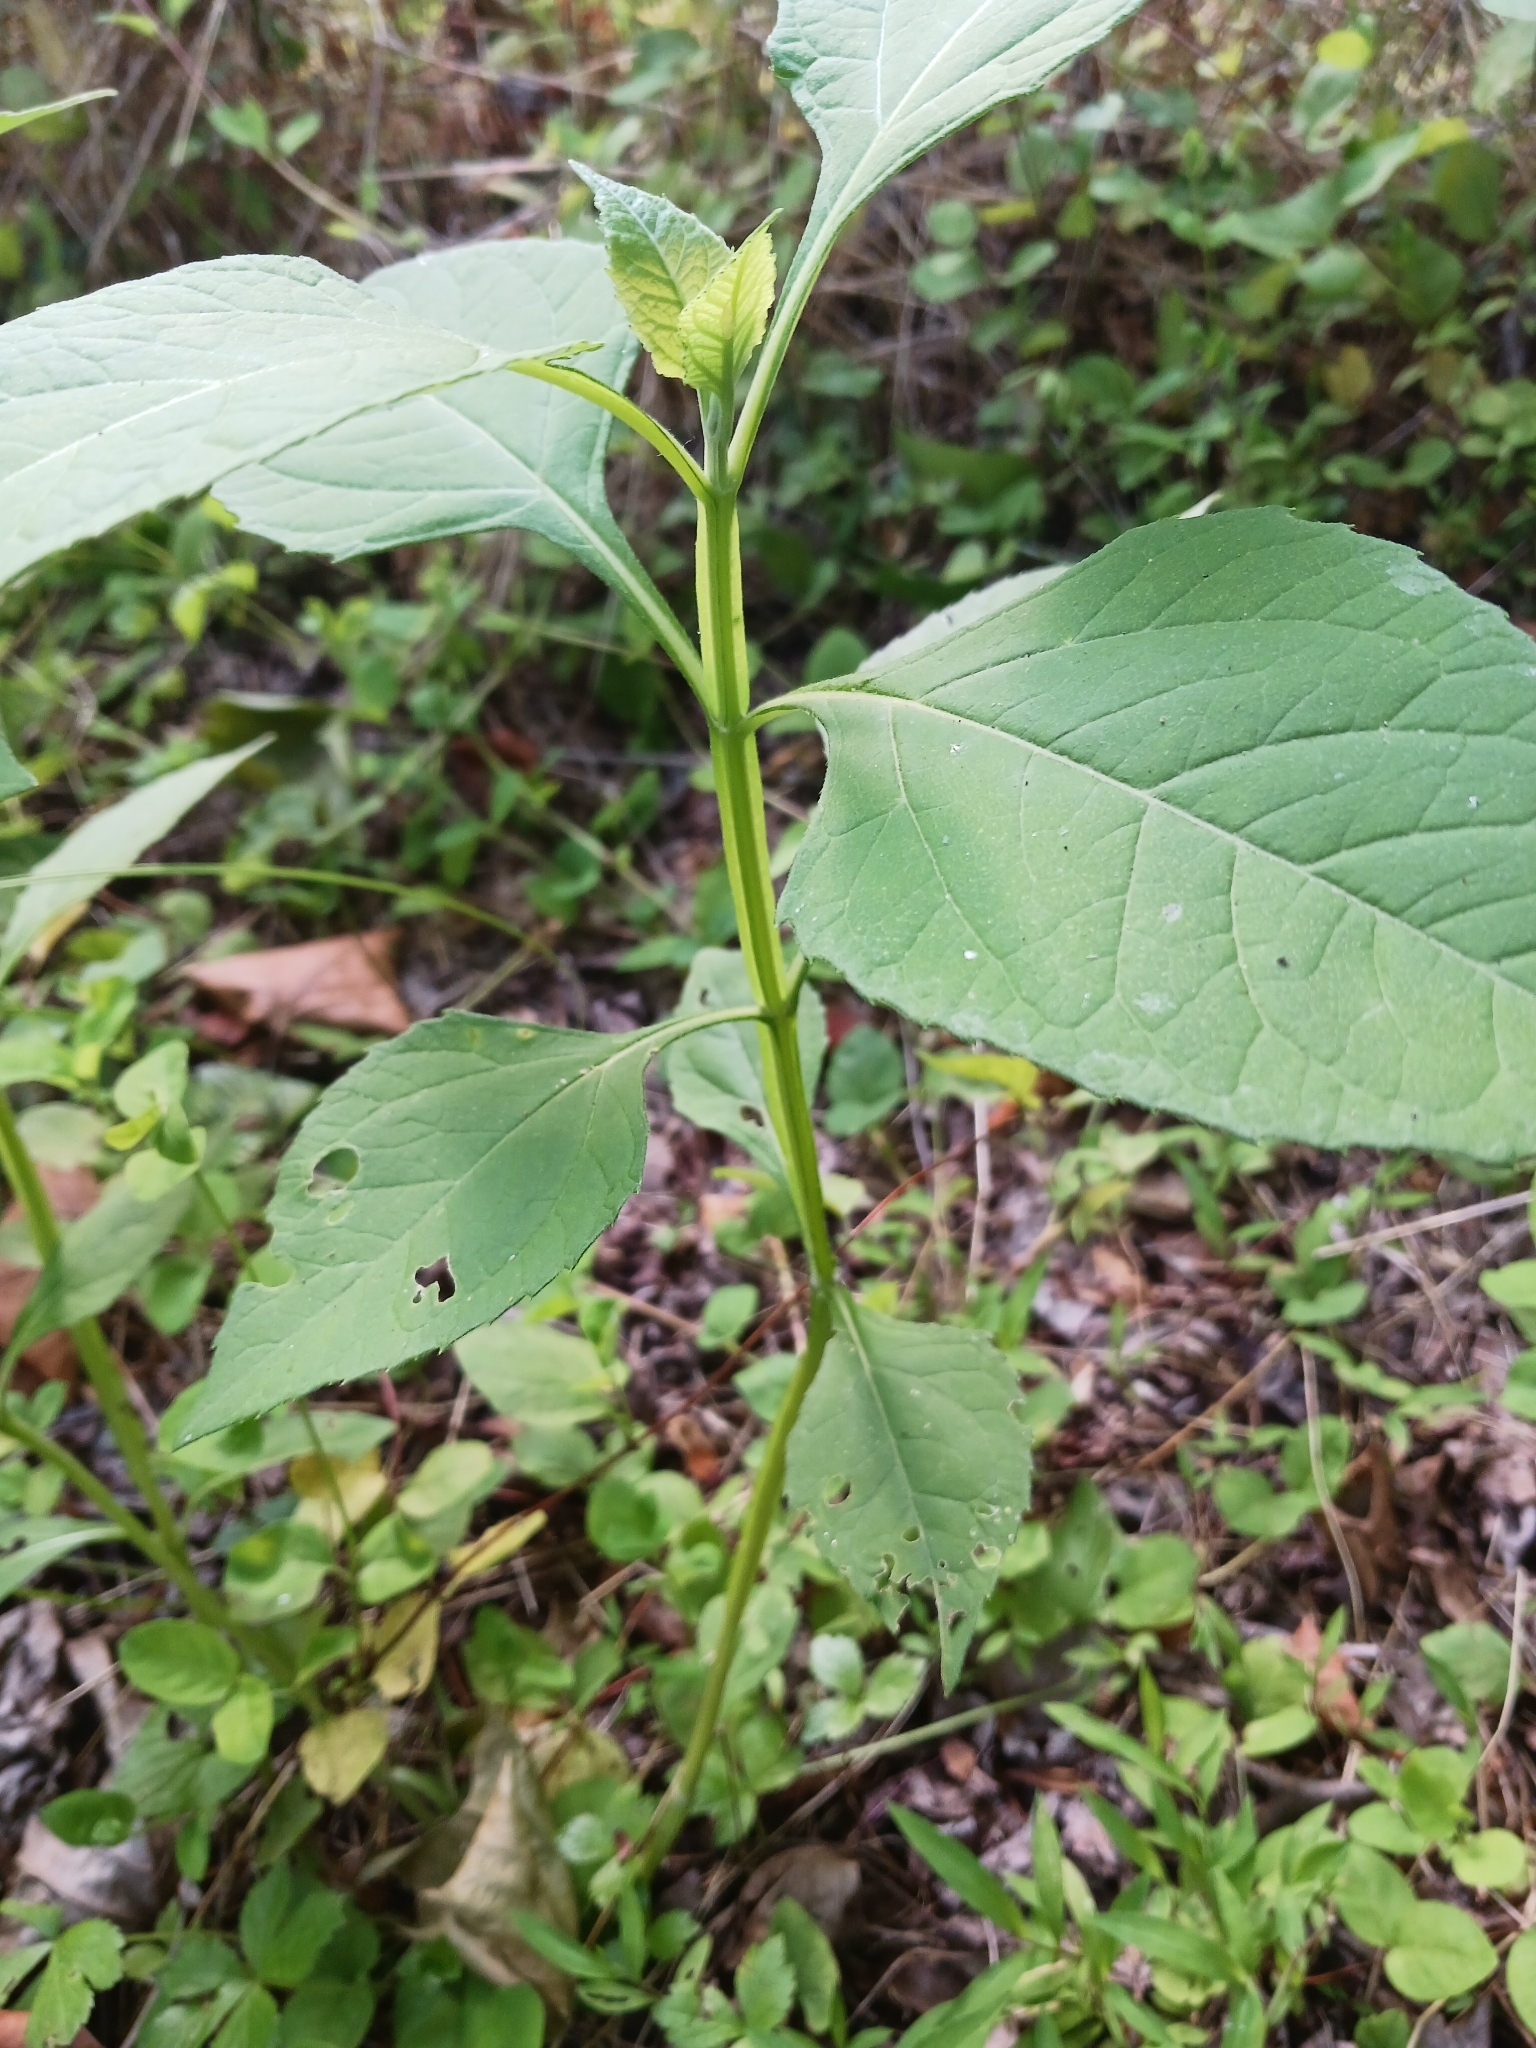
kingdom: Plantae
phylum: Tracheophyta
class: Magnoliopsida
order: Asterales
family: Asteraceae
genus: Verbesina
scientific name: Verbesina occidentalis
